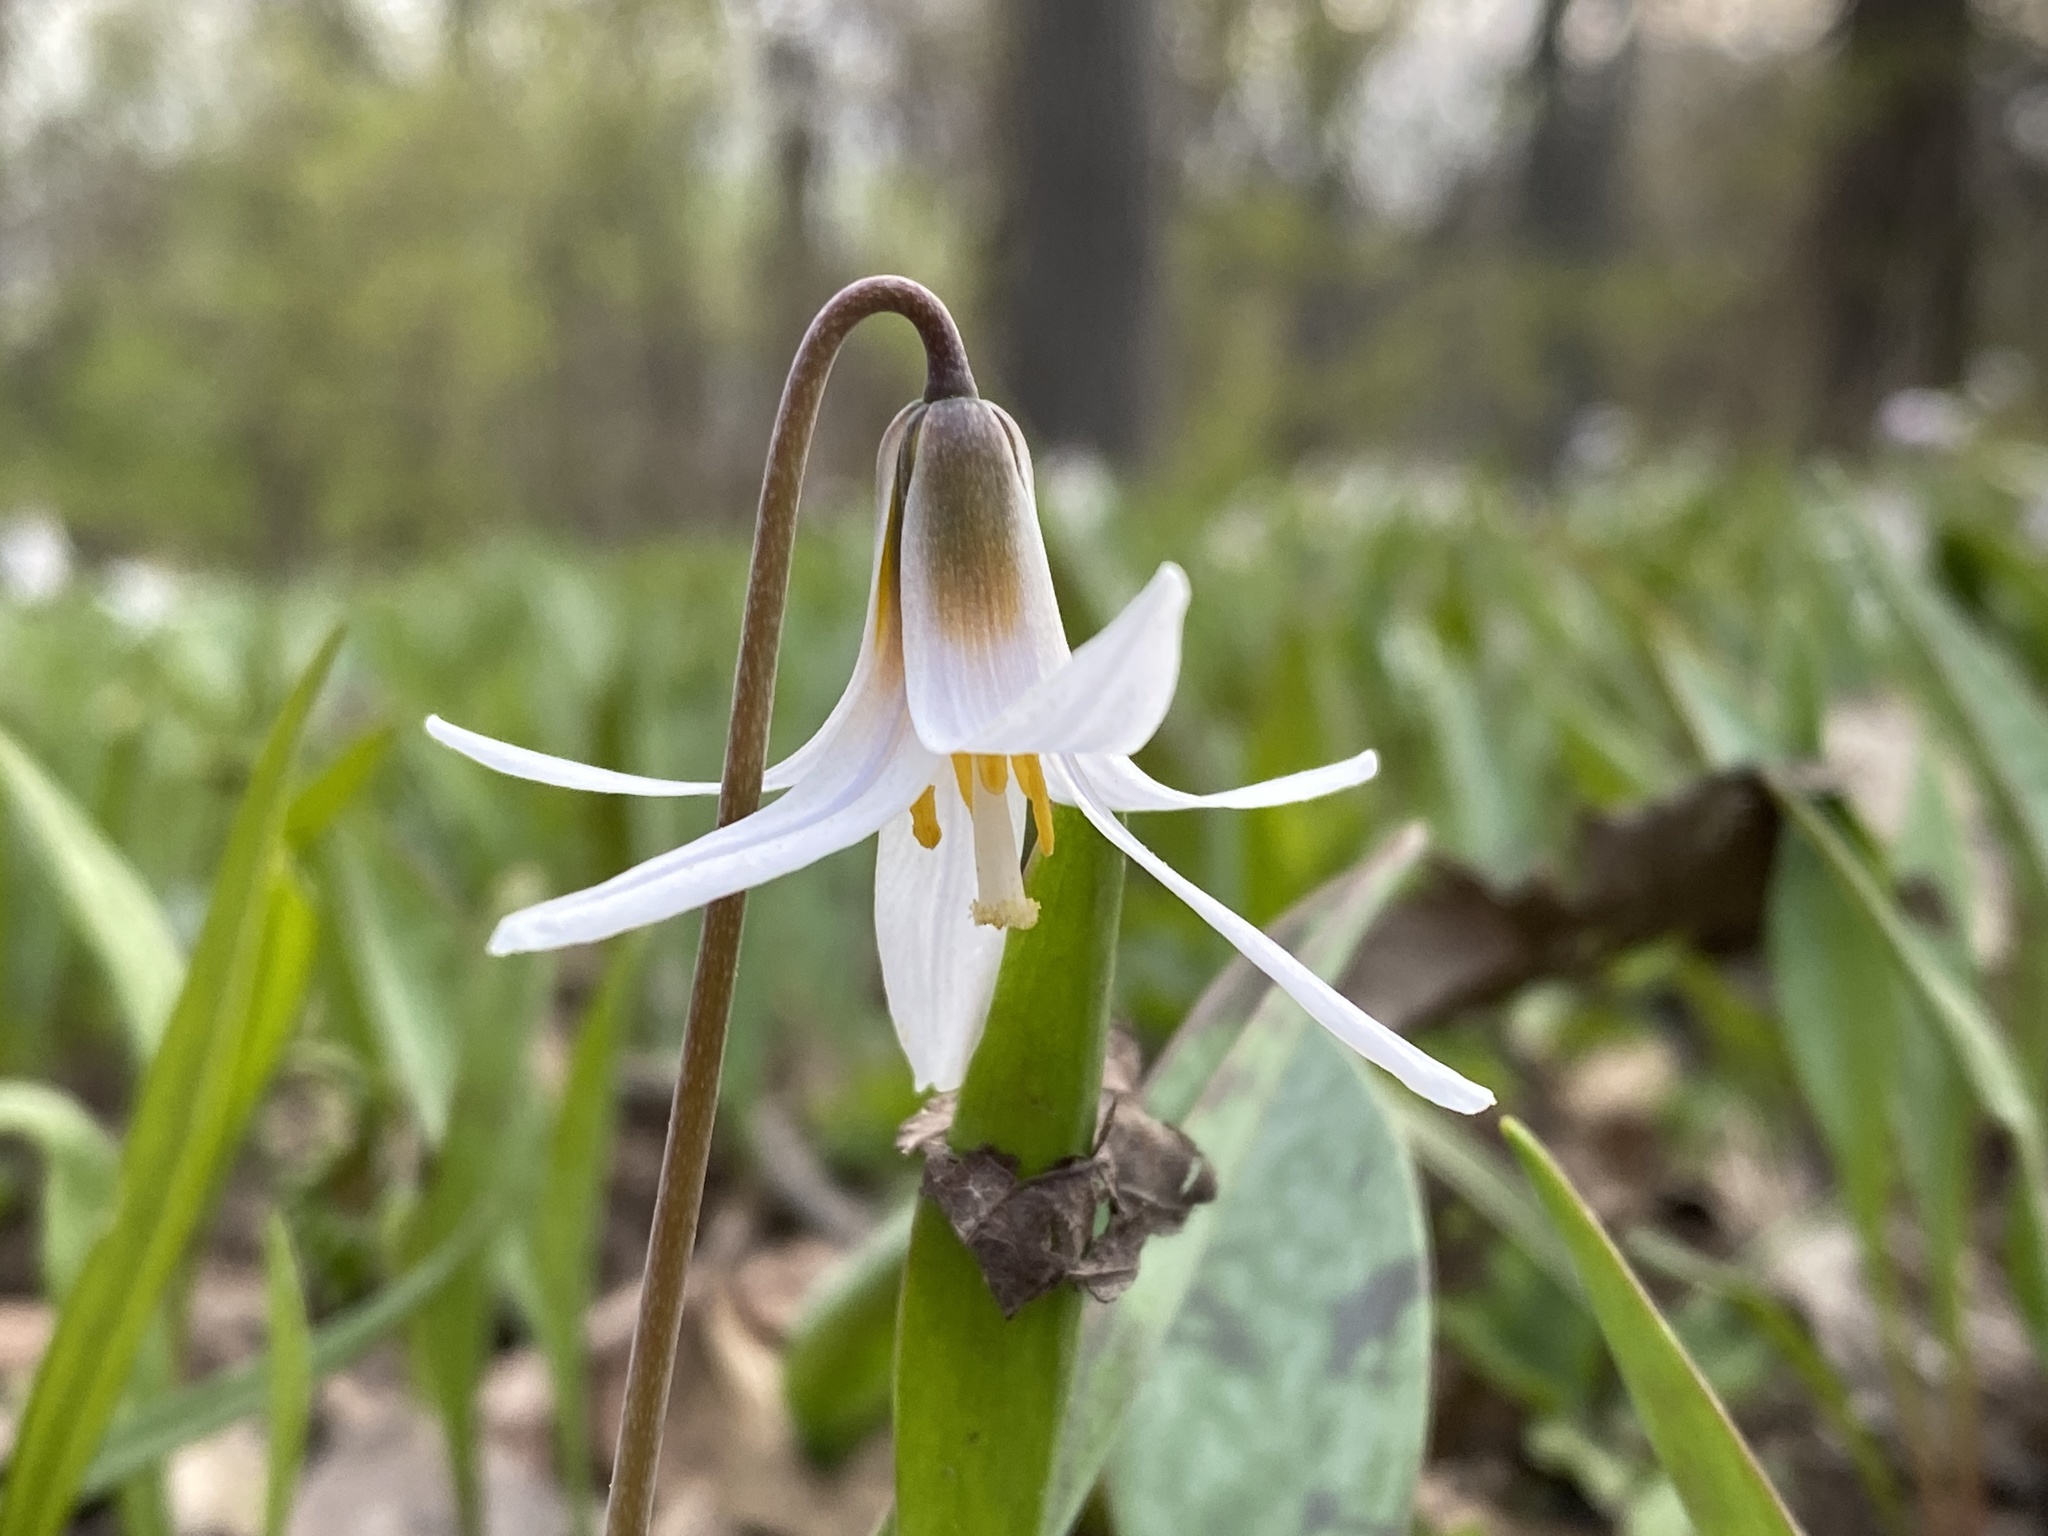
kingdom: Plantae
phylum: Tracheophyta
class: Liliopsida
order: Liliales
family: Liliaceae
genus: Erythronium
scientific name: Erythronium albidum
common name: White trout-lily
